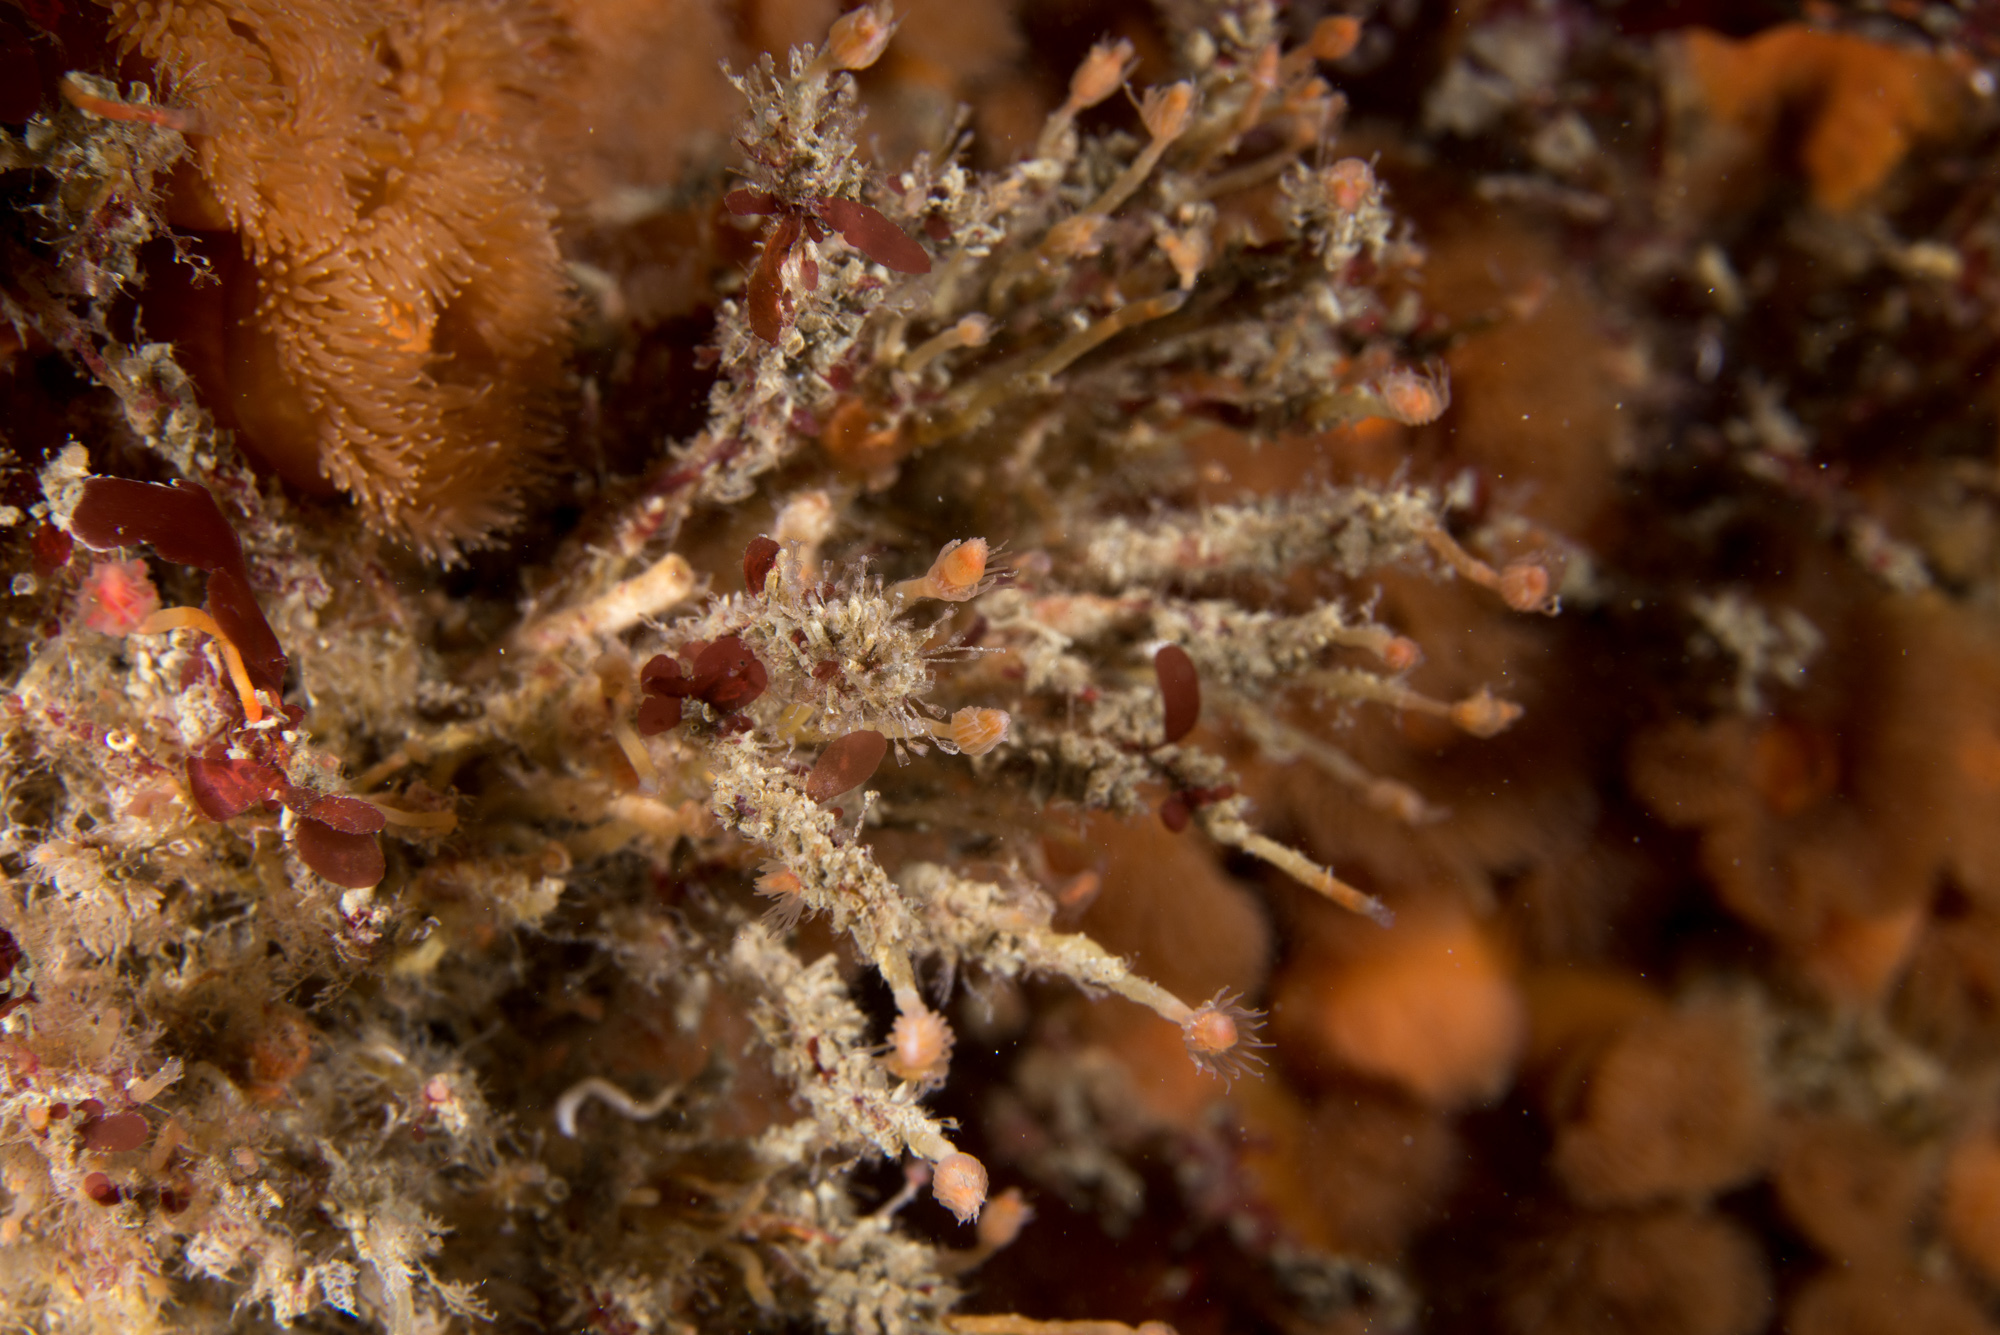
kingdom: Animalia
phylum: Cnidaria
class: Hydrozoa
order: Anthoathecata
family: Tubulariidae
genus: Tubularia
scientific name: Tubularia indivisa
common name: Oaten pipes hydroid
